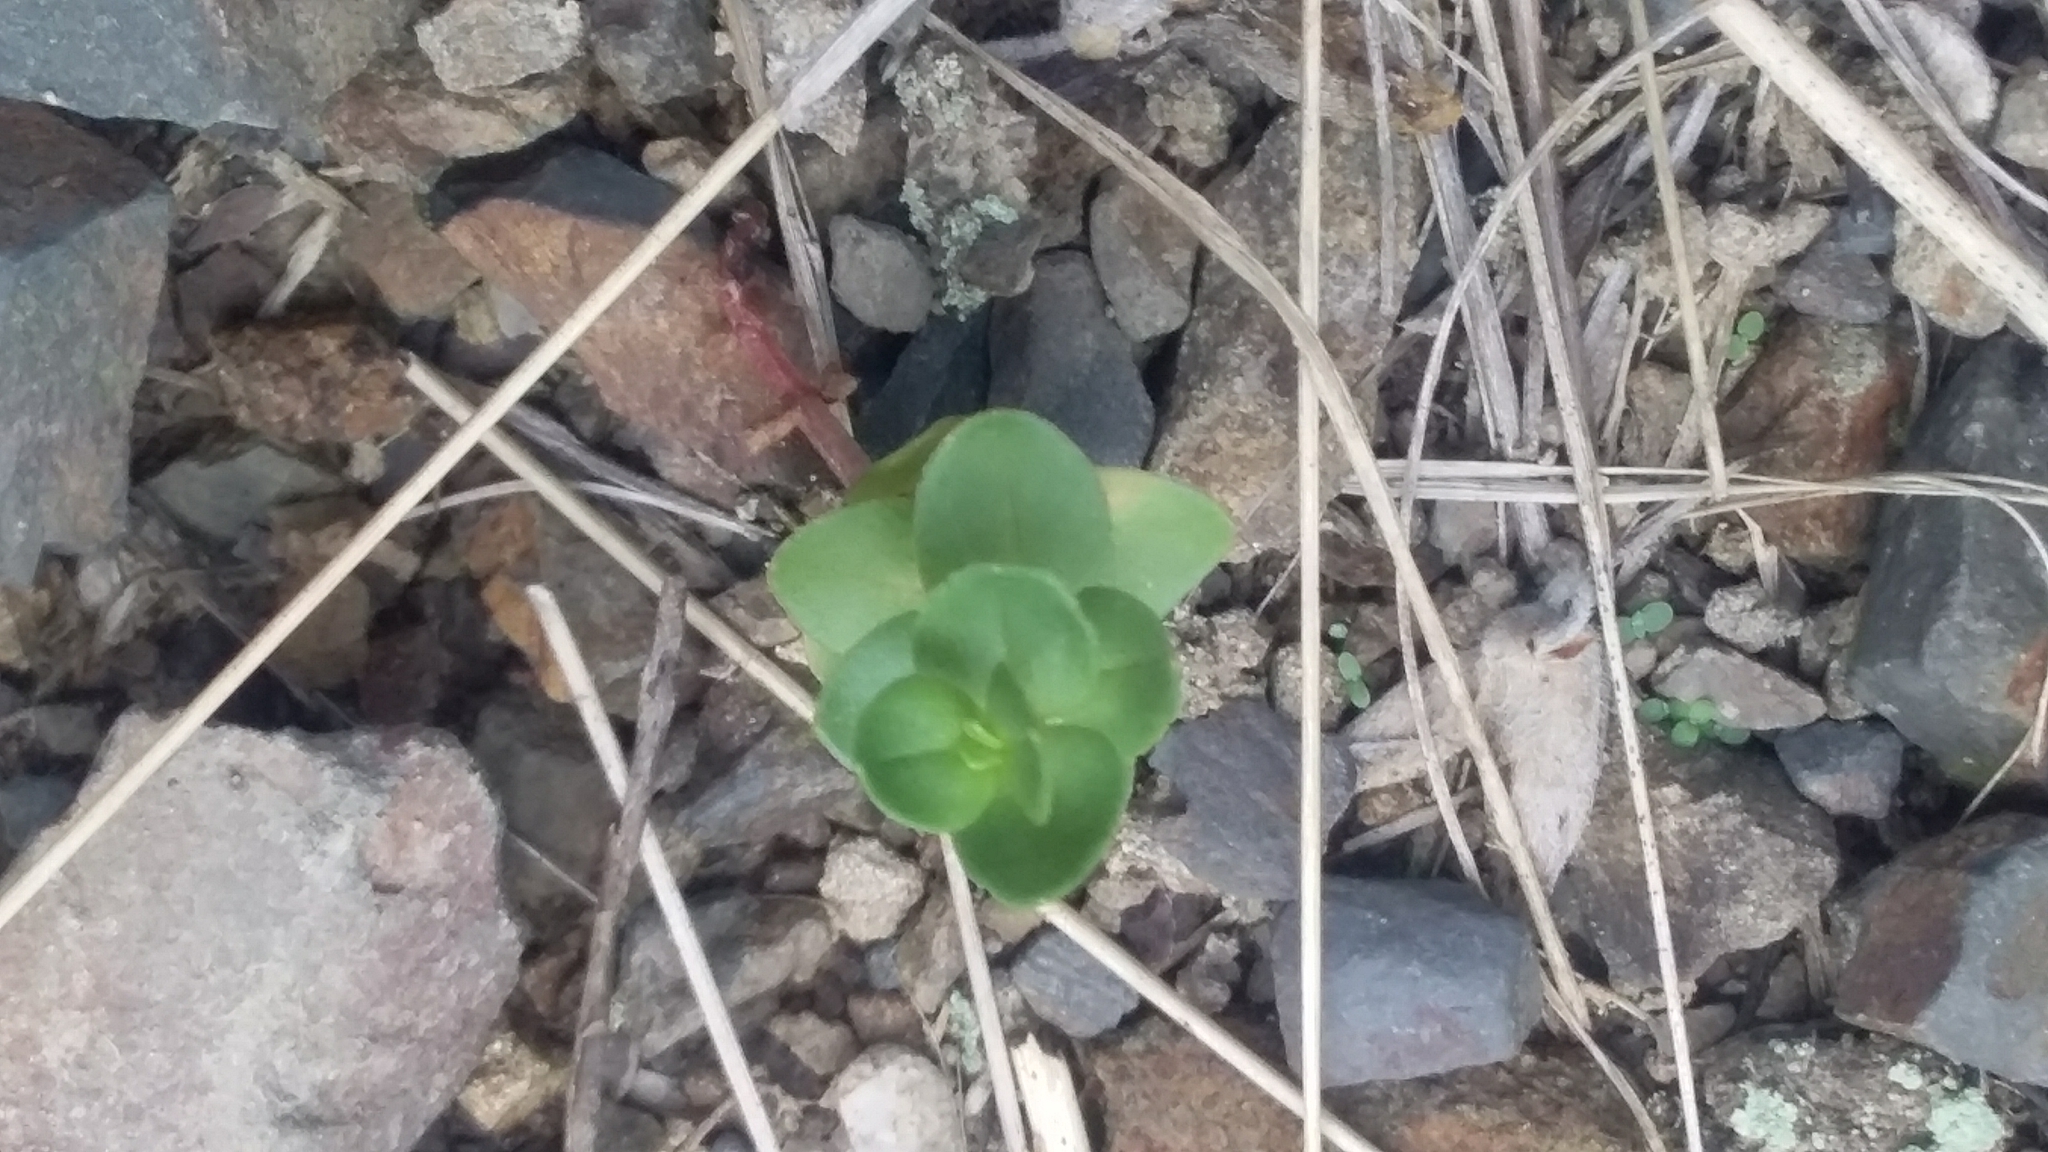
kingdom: Plantae
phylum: Tracheophyta
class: Magnoliopsida
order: Ericales
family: Primulaceae
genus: Lysimachia
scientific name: Lysimachia arvensis
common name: Scarlet pimpernel
